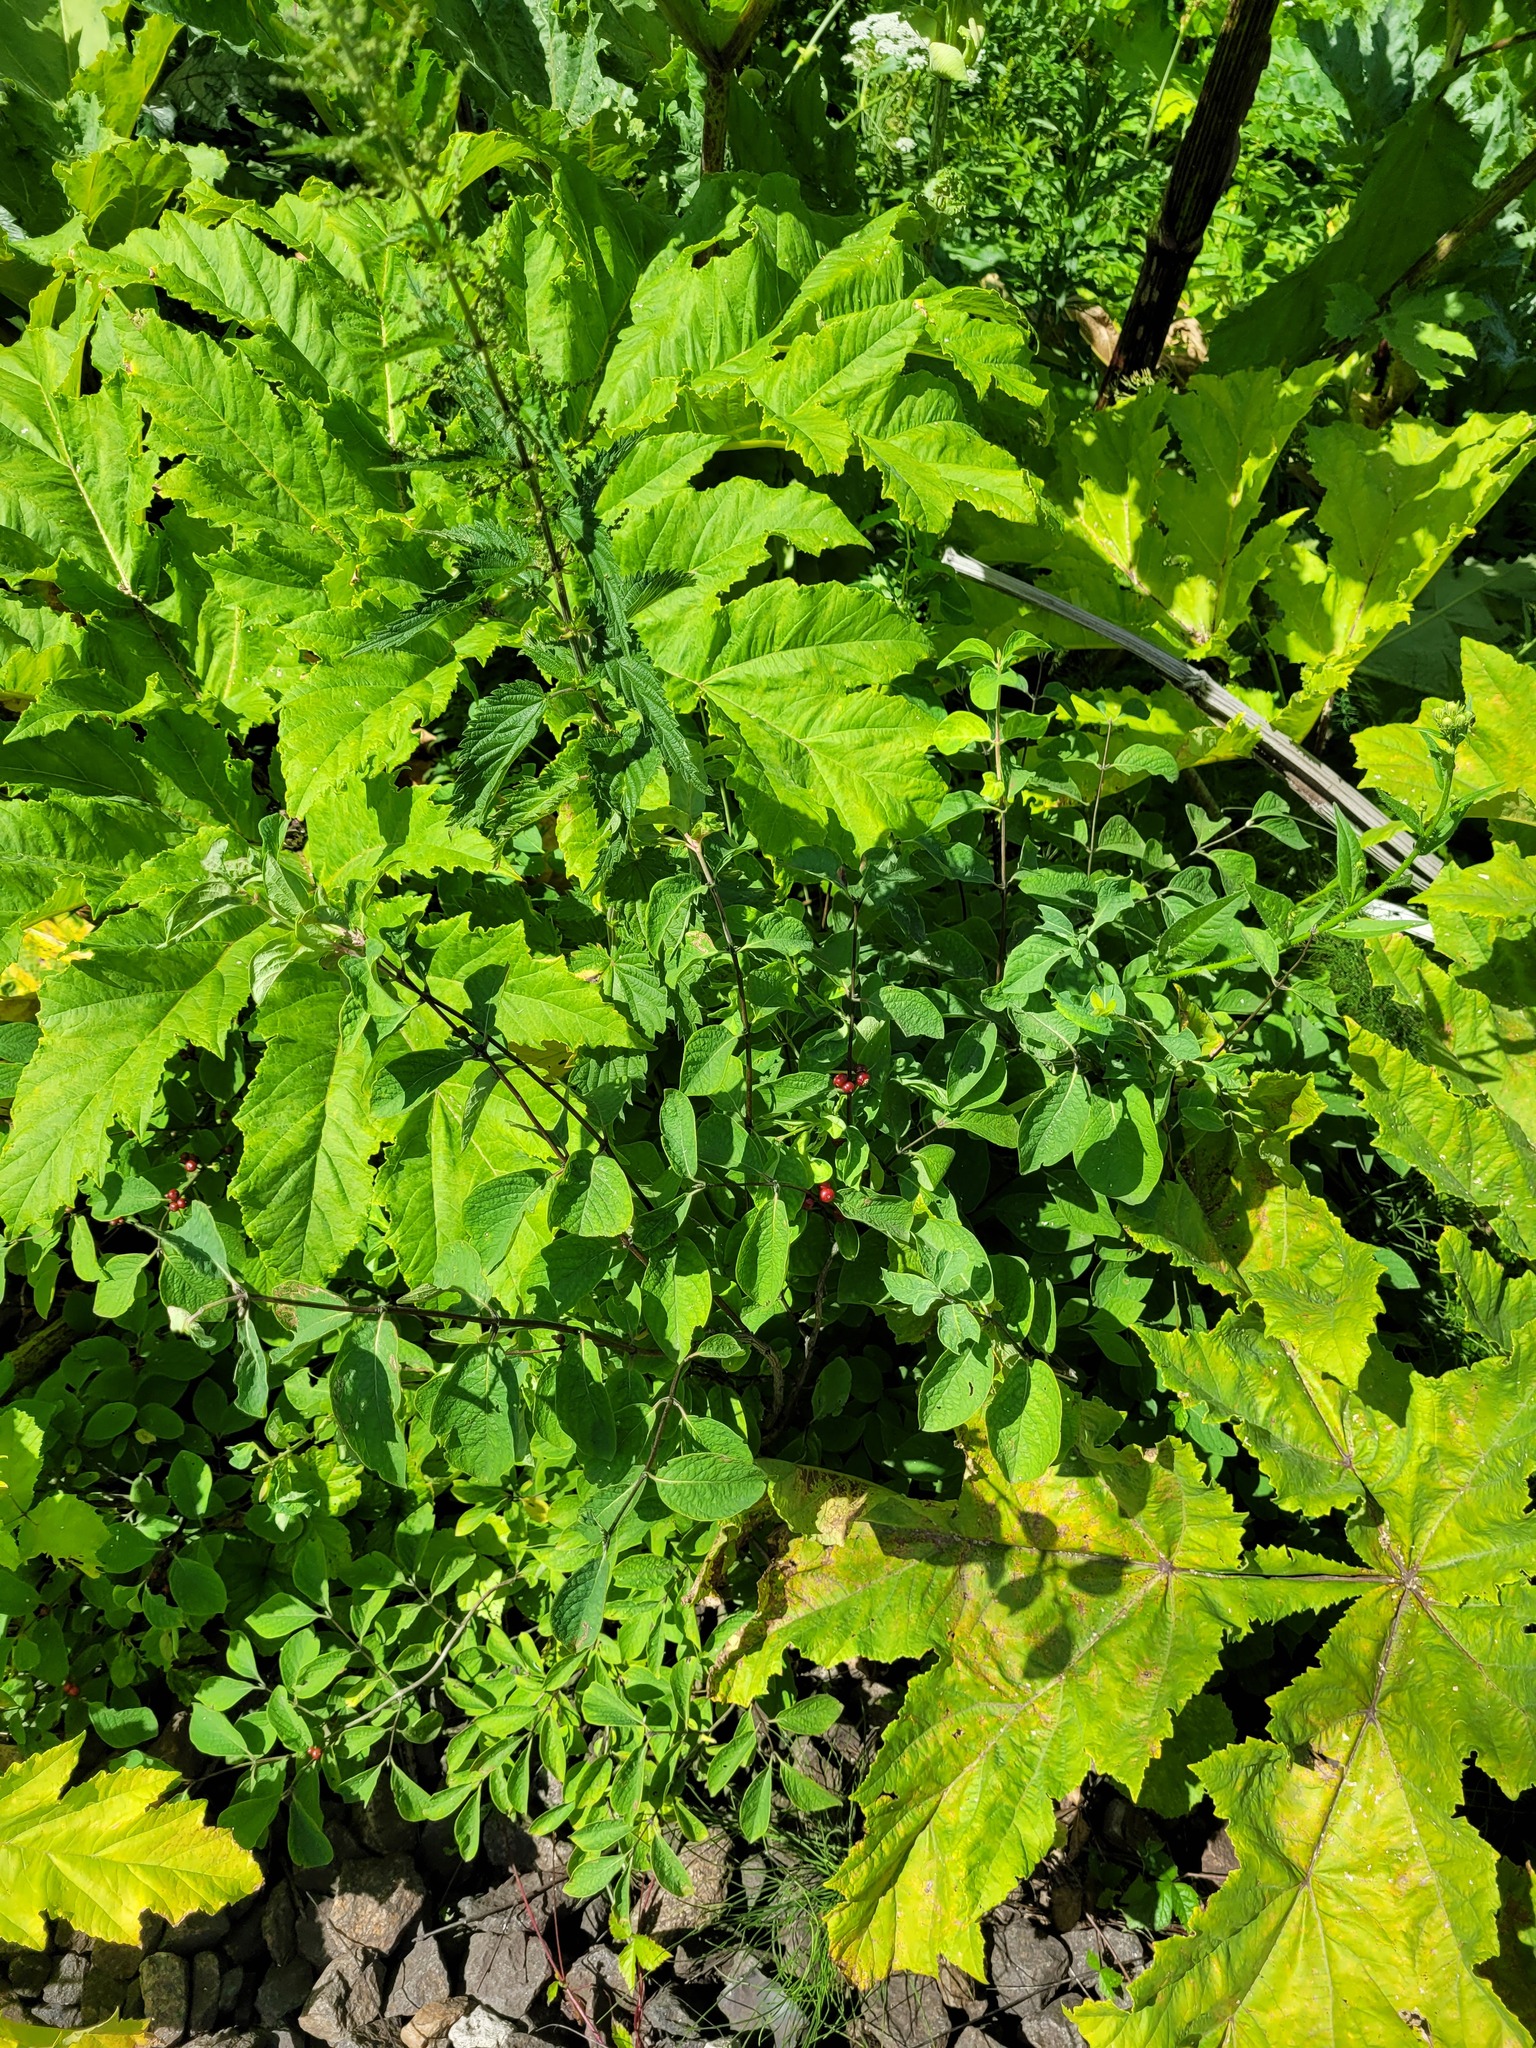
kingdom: Plantae
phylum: Tracheophyta
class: Magnoliopsida
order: Dipsacales
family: Caprifoliaceae
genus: Lonicera
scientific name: Lonicera xylosteum
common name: Fly honeysuckle
